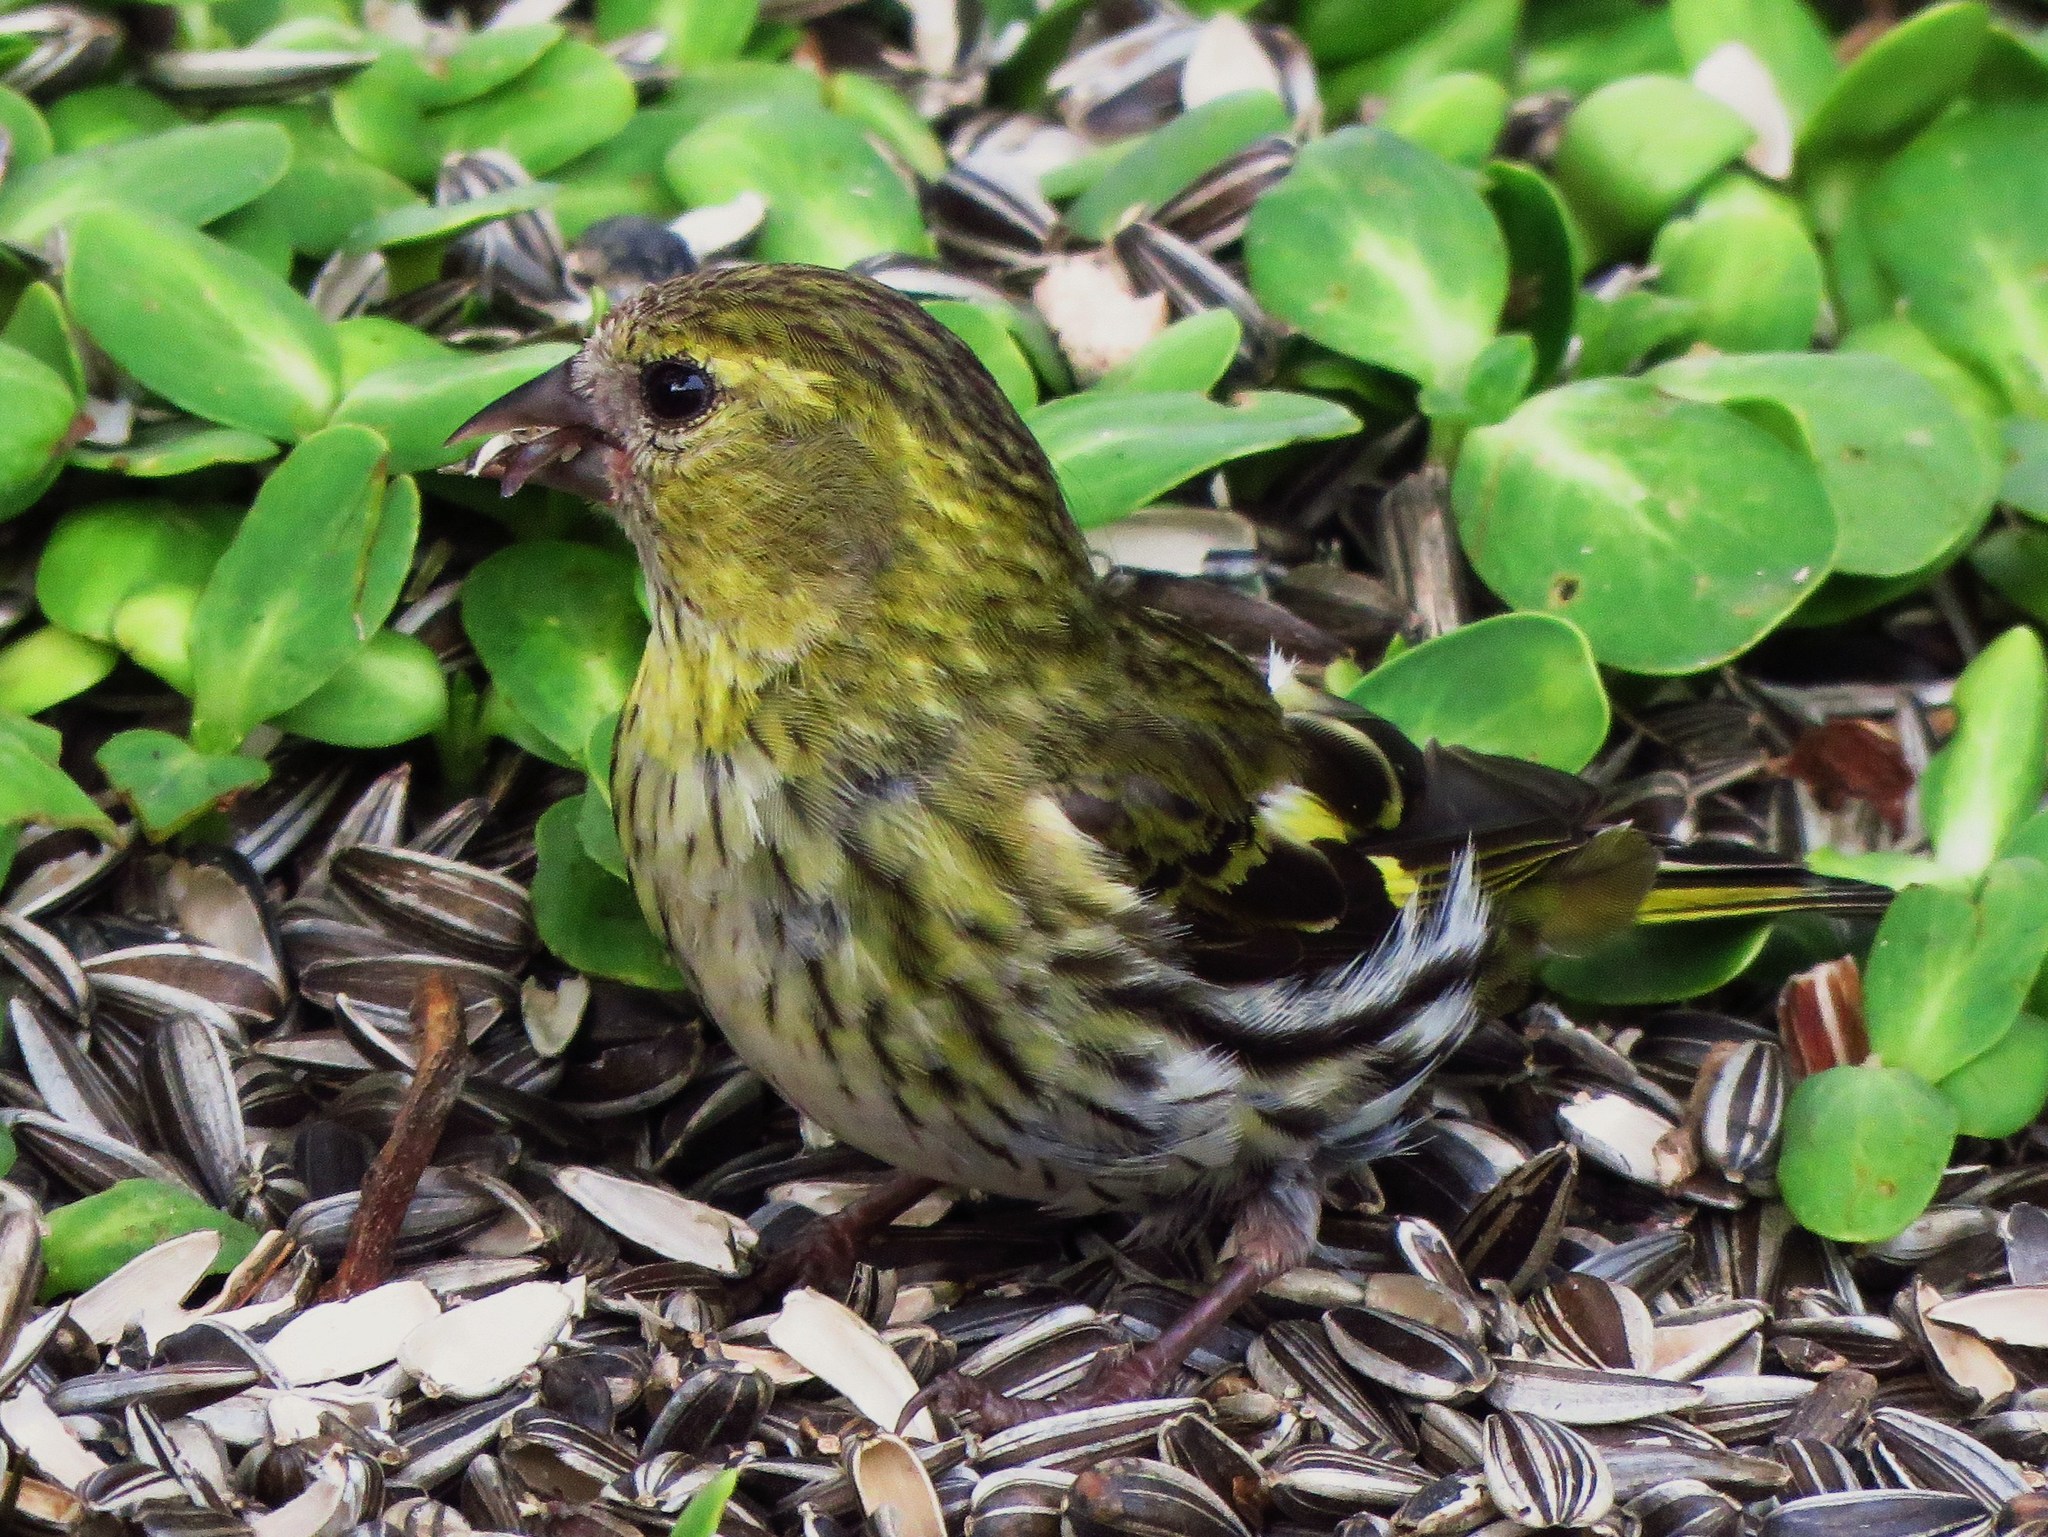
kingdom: Animalia
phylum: Chordata
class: Aves
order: Passeriformes
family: Fringillidae
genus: Spinus
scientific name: Spinus spinus
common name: Eurasian siskin
